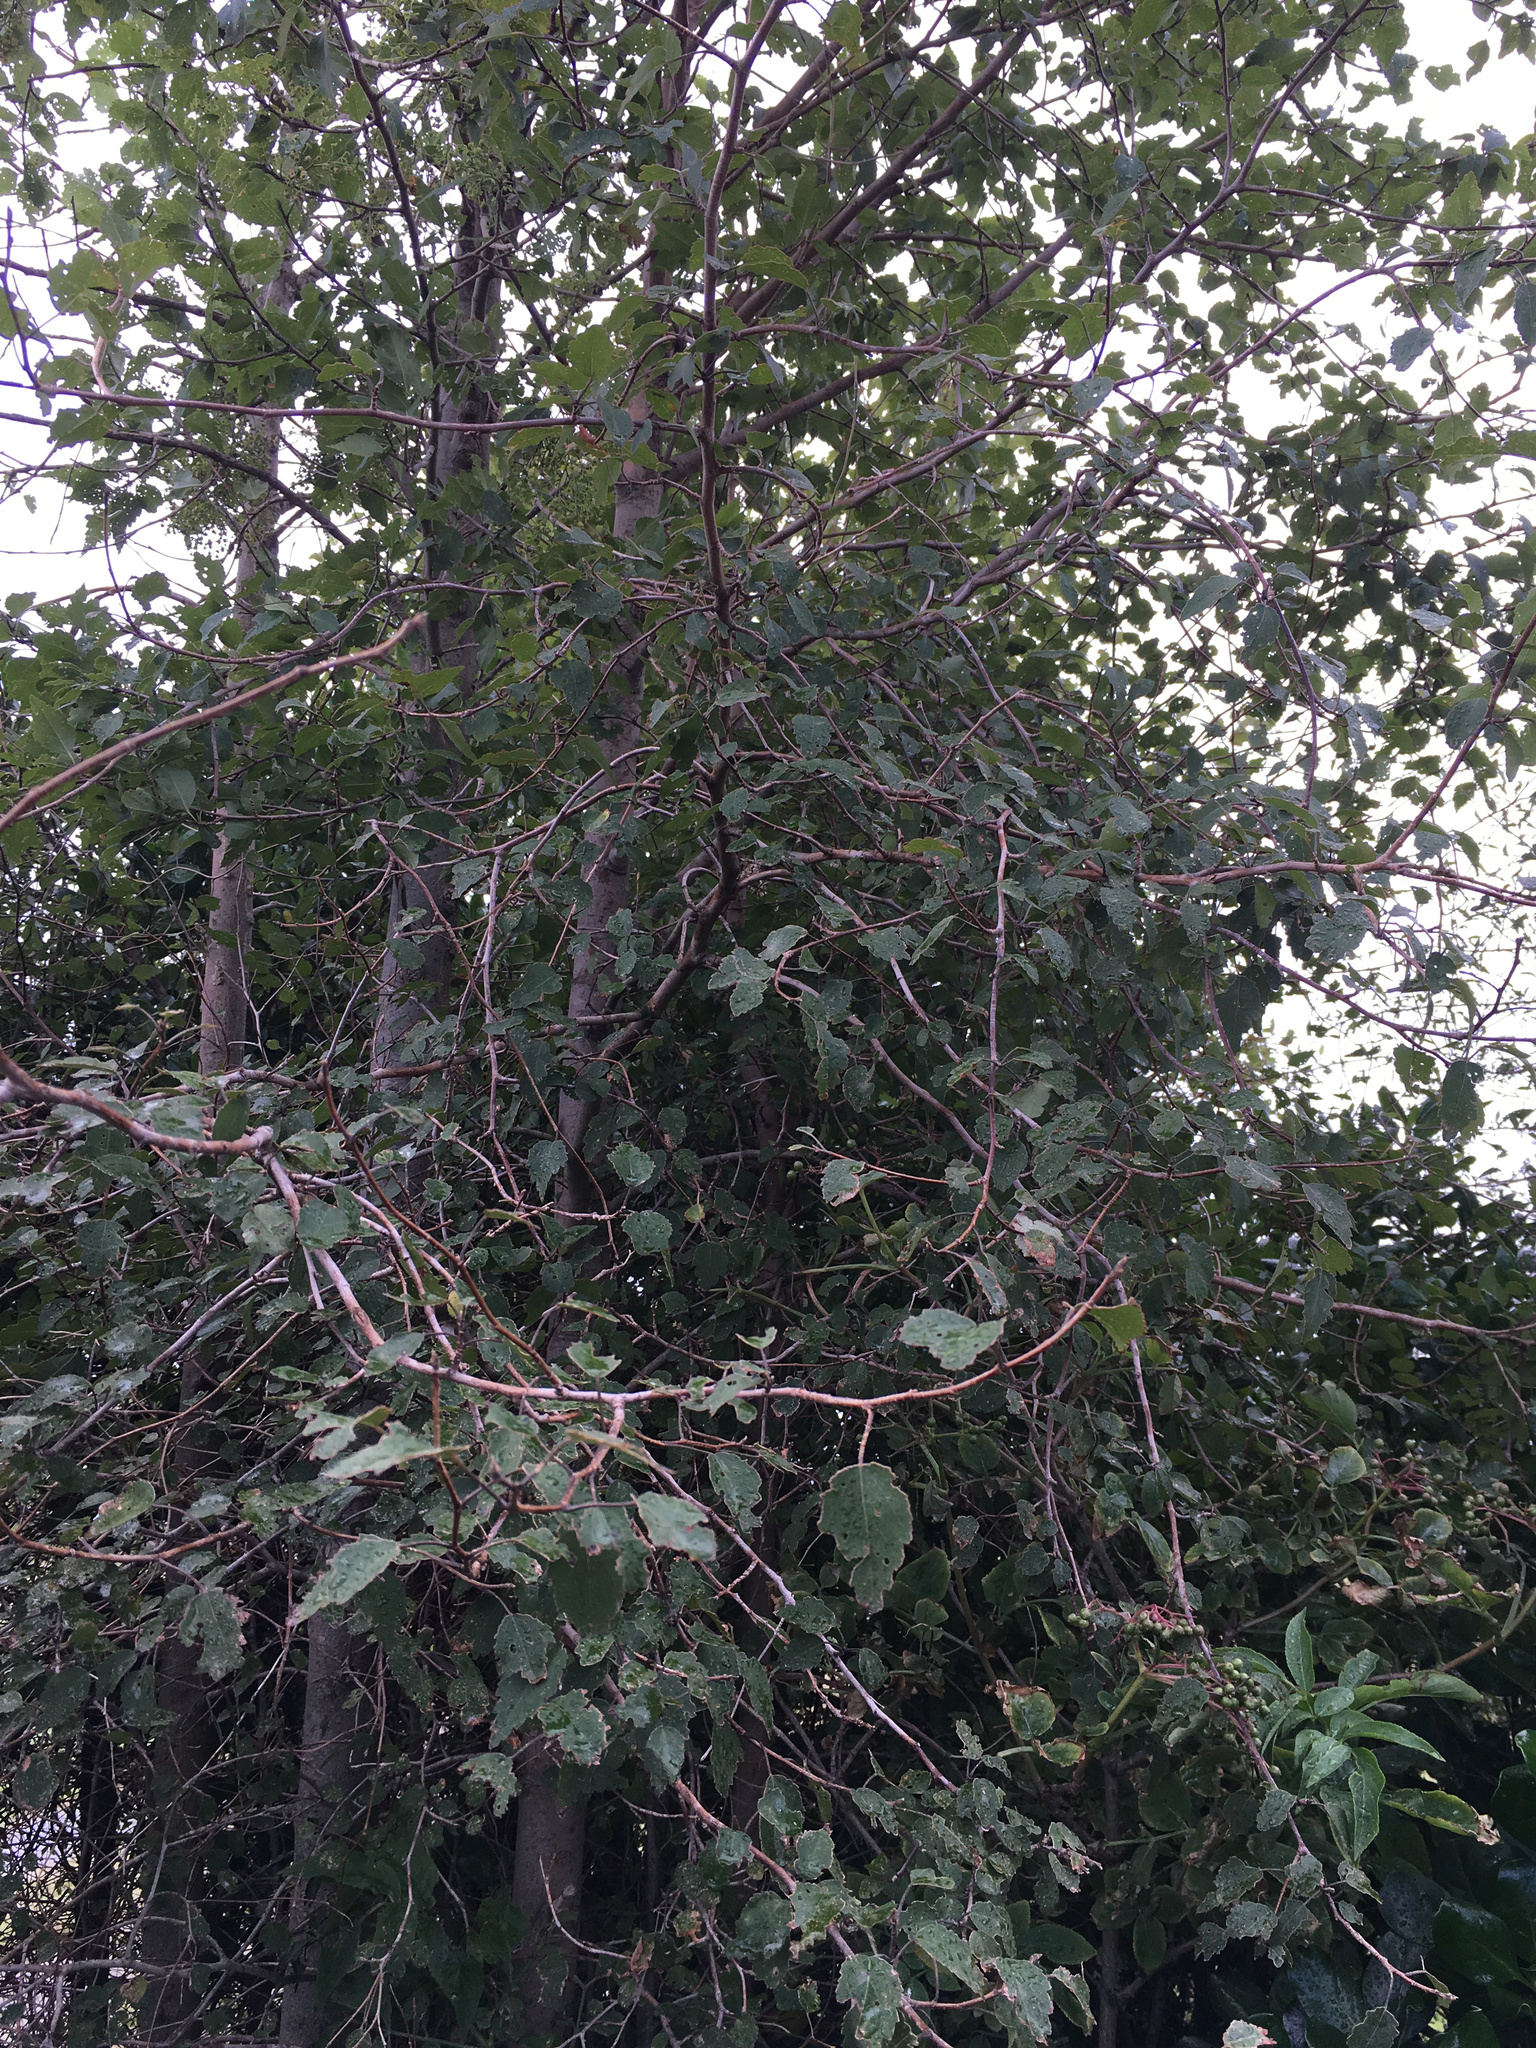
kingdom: Plantae
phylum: Tracheophyta
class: Magnoliopsida
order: Malvales
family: Malvaceae
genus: Plagianthus
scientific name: Plagianthus regius
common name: Manatu
